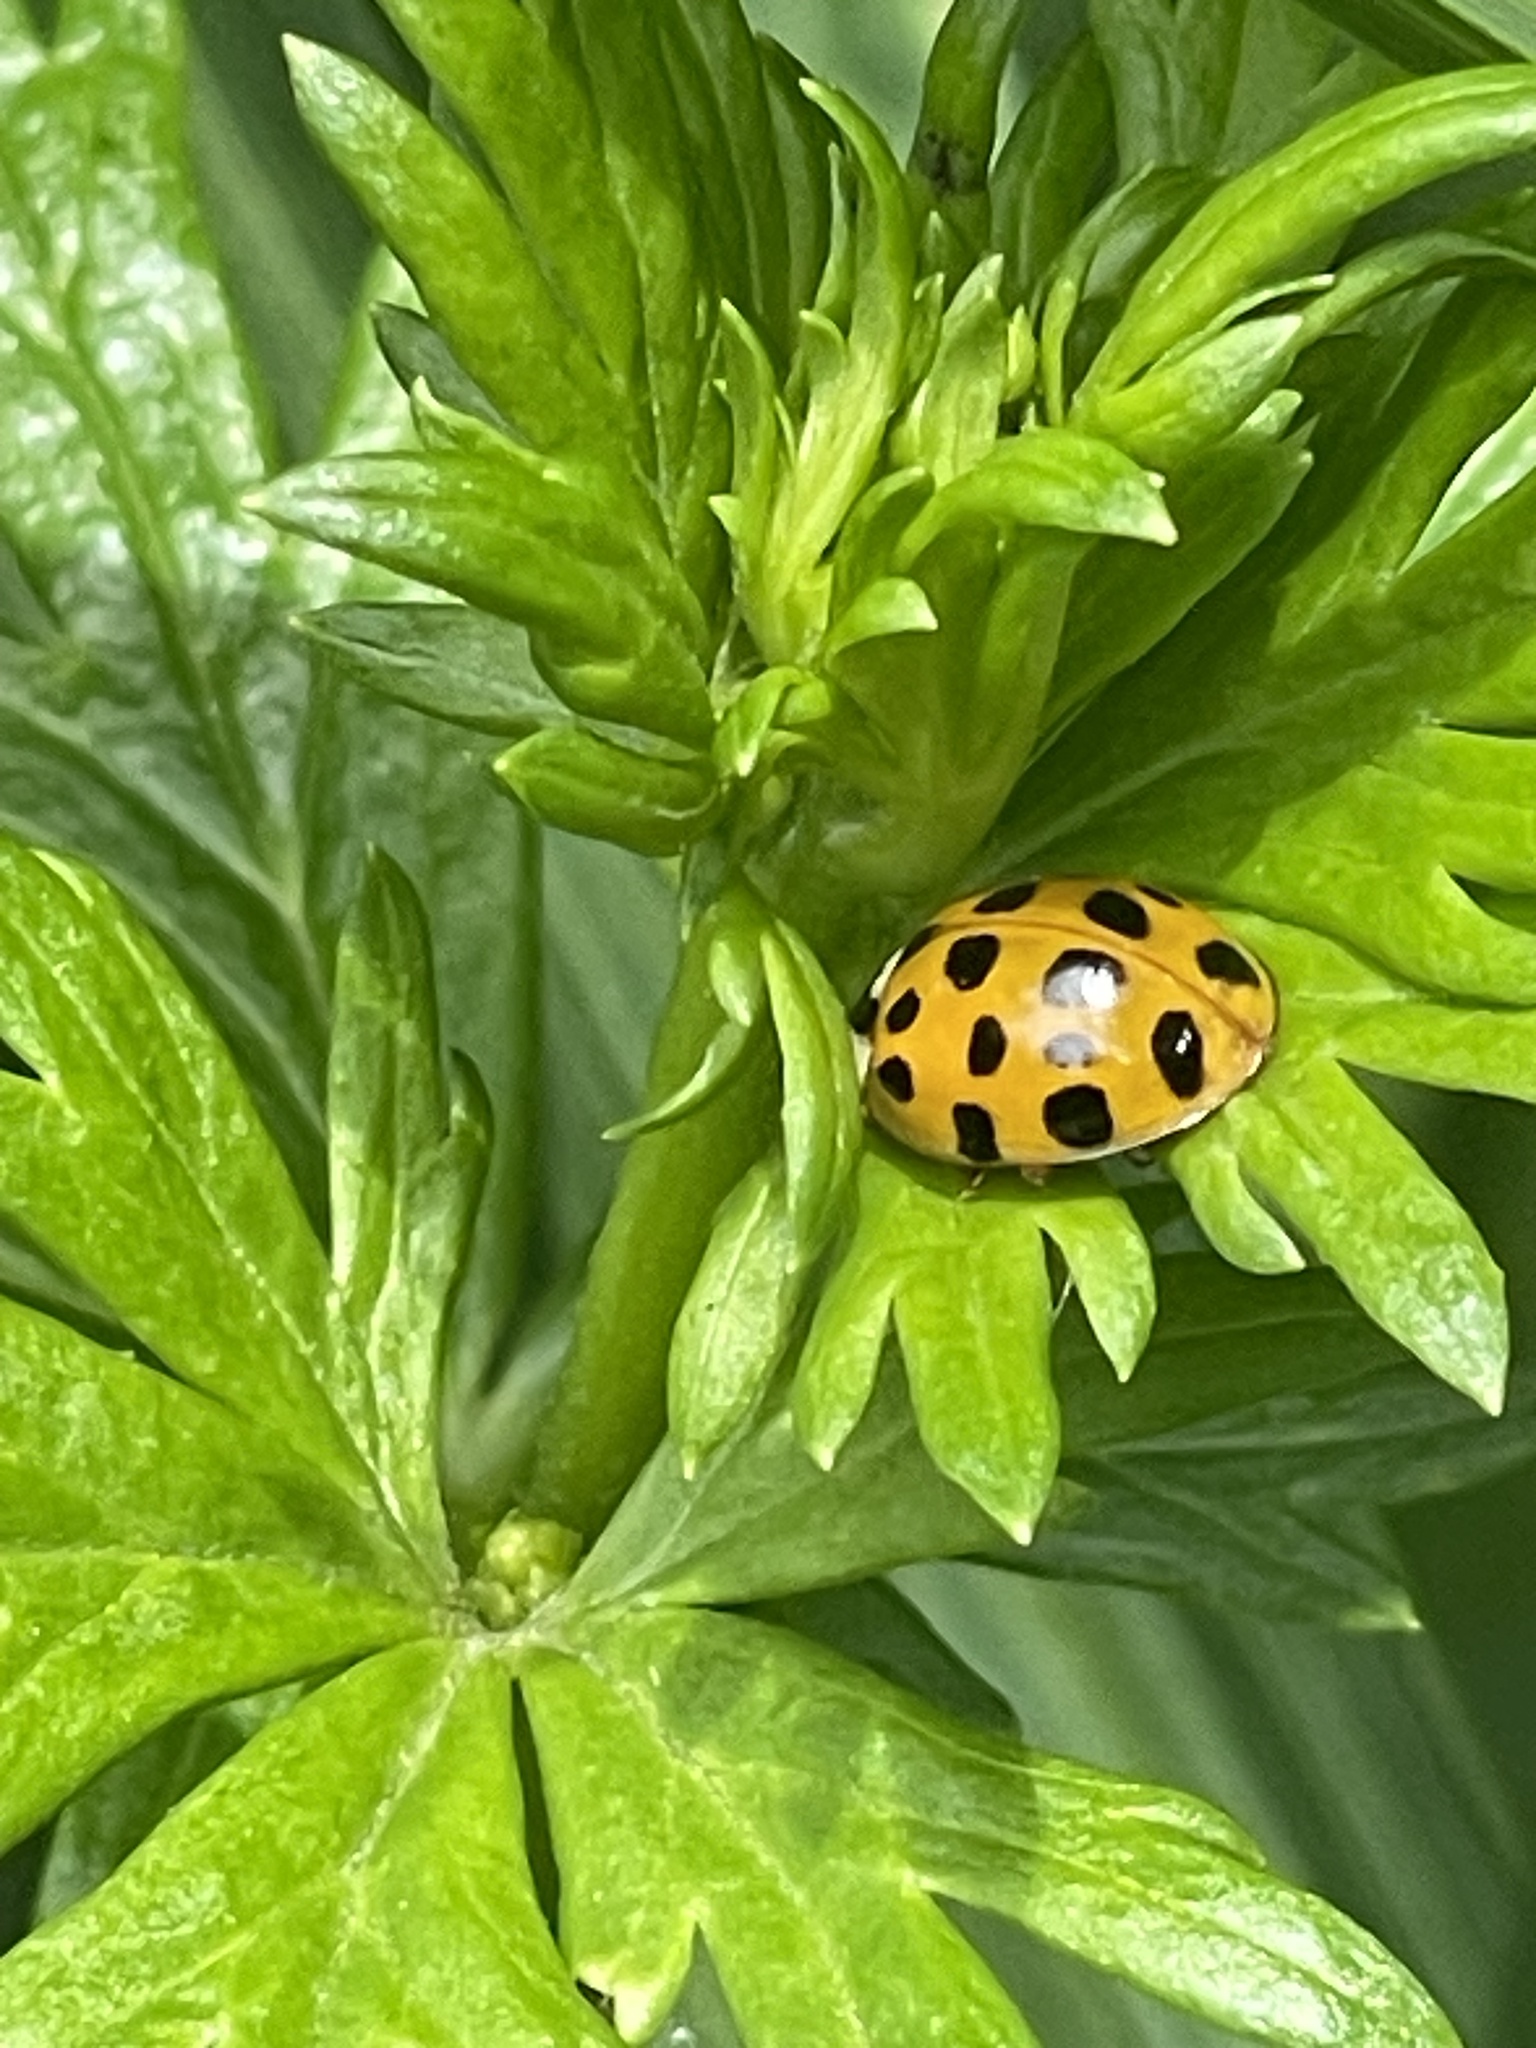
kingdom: Animalia
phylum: Arthropoda
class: Insecta
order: Coleoptera
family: Coccinellidae
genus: Harmonia
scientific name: Harmonia axyridis
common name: Harlequin ladybird
